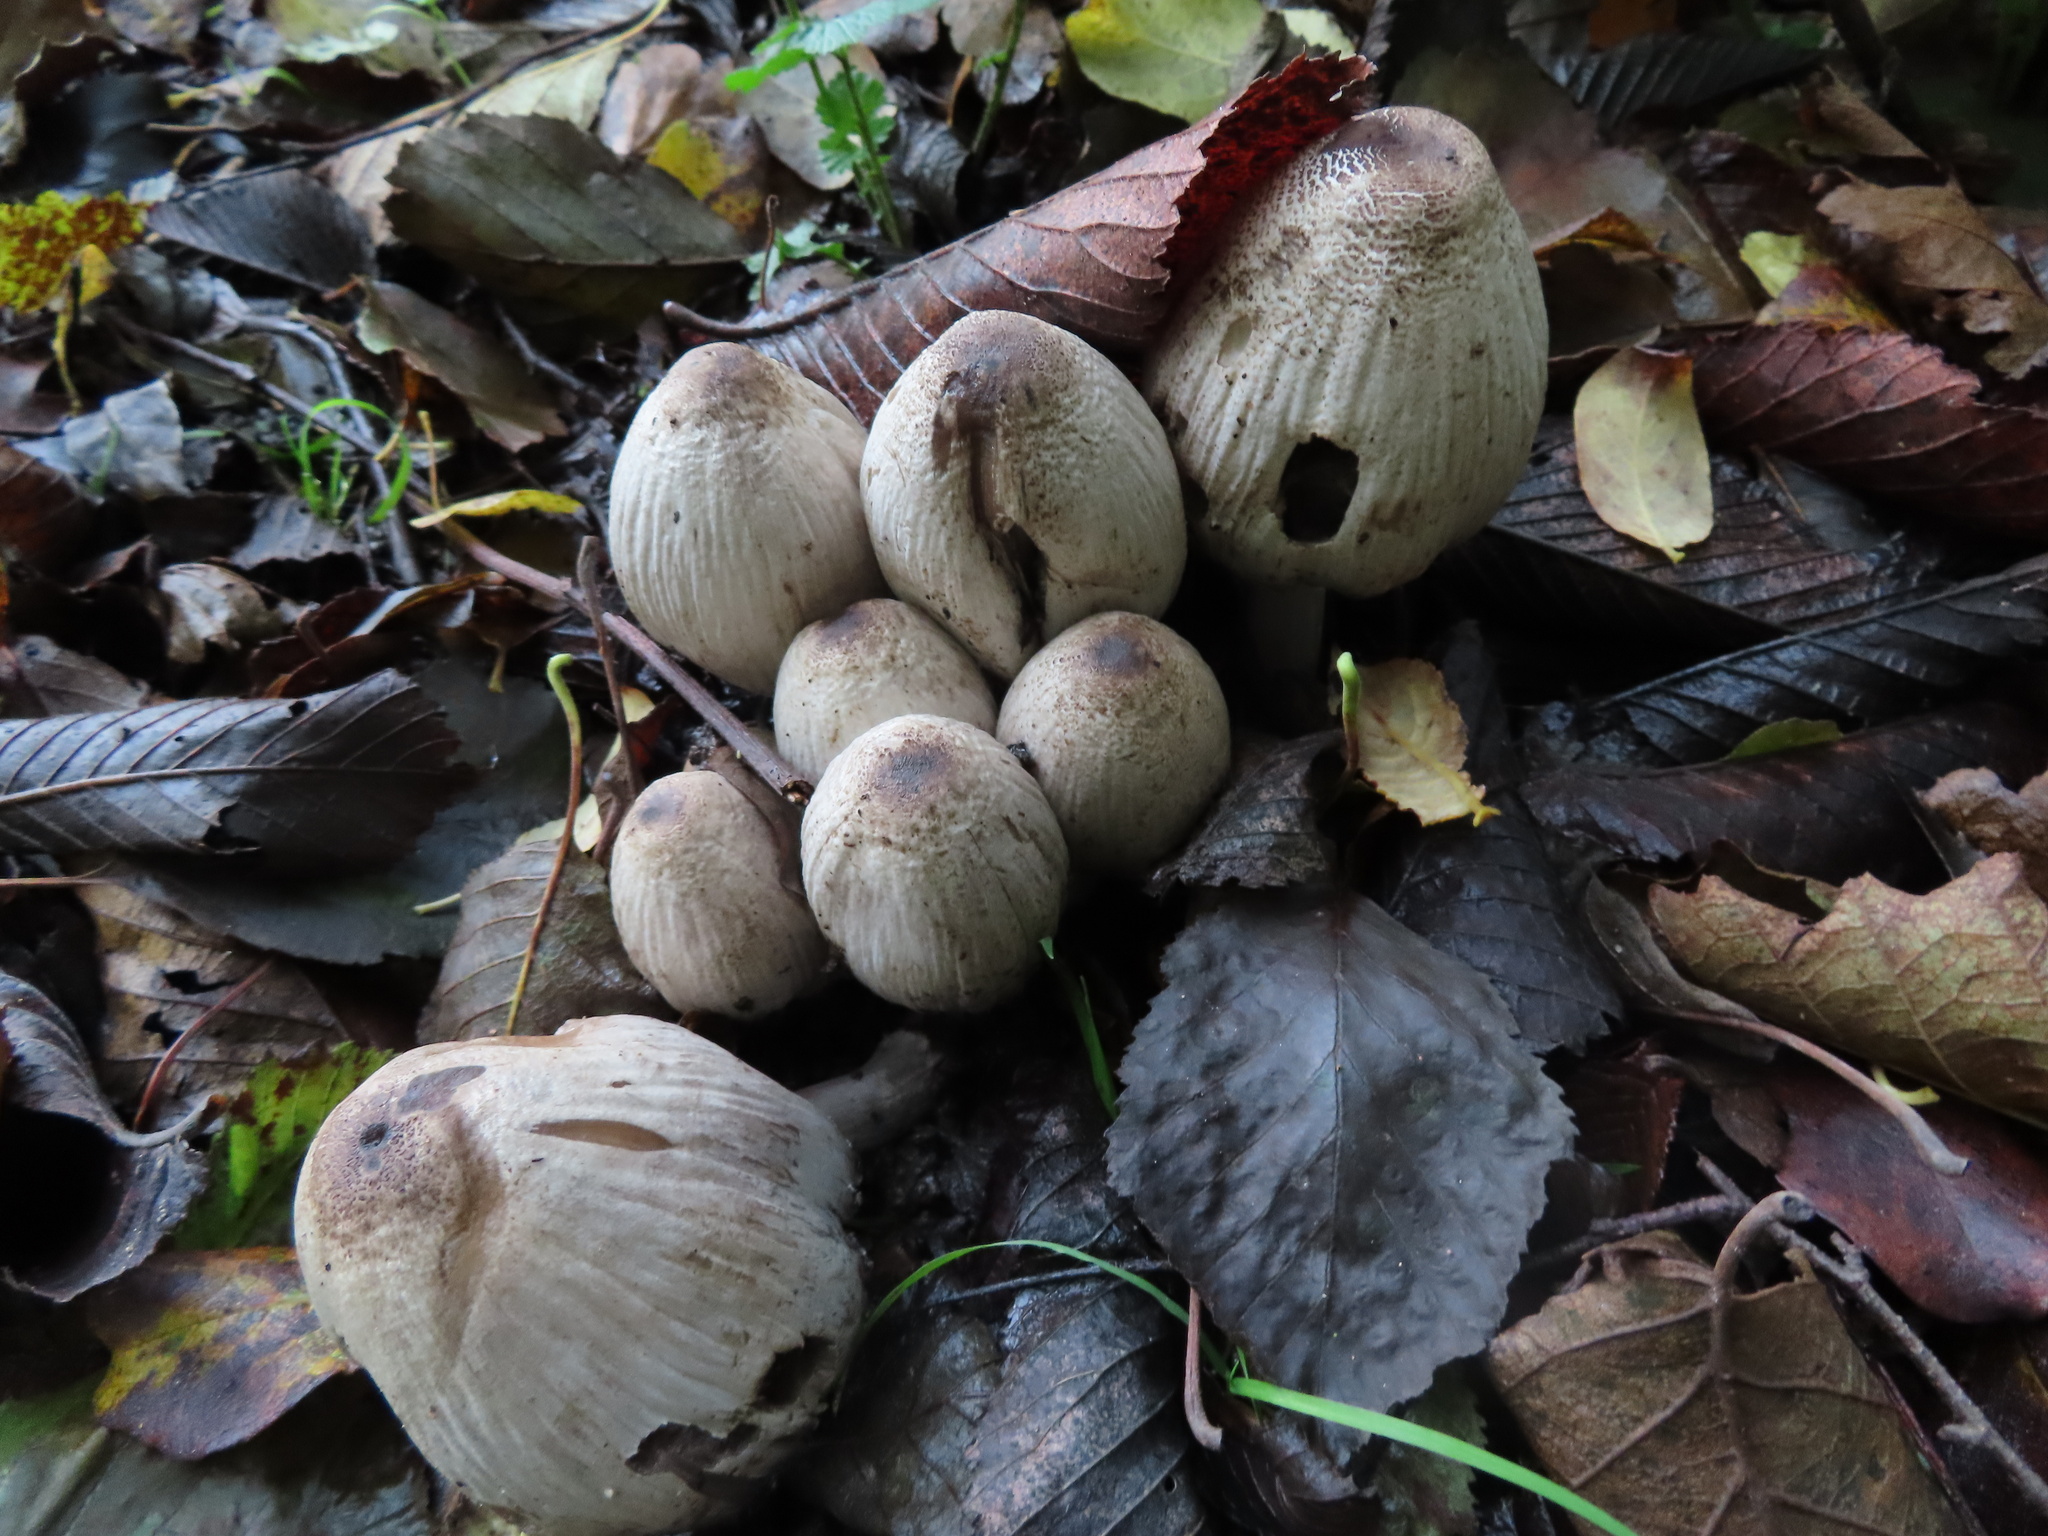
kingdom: Fungi
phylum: Basidiomycota
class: Agaricomycetes
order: Agaricales
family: Psathyrellaceae
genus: Coprinopsis
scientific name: Coprinopsis atramentaria
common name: Common ink-cap
